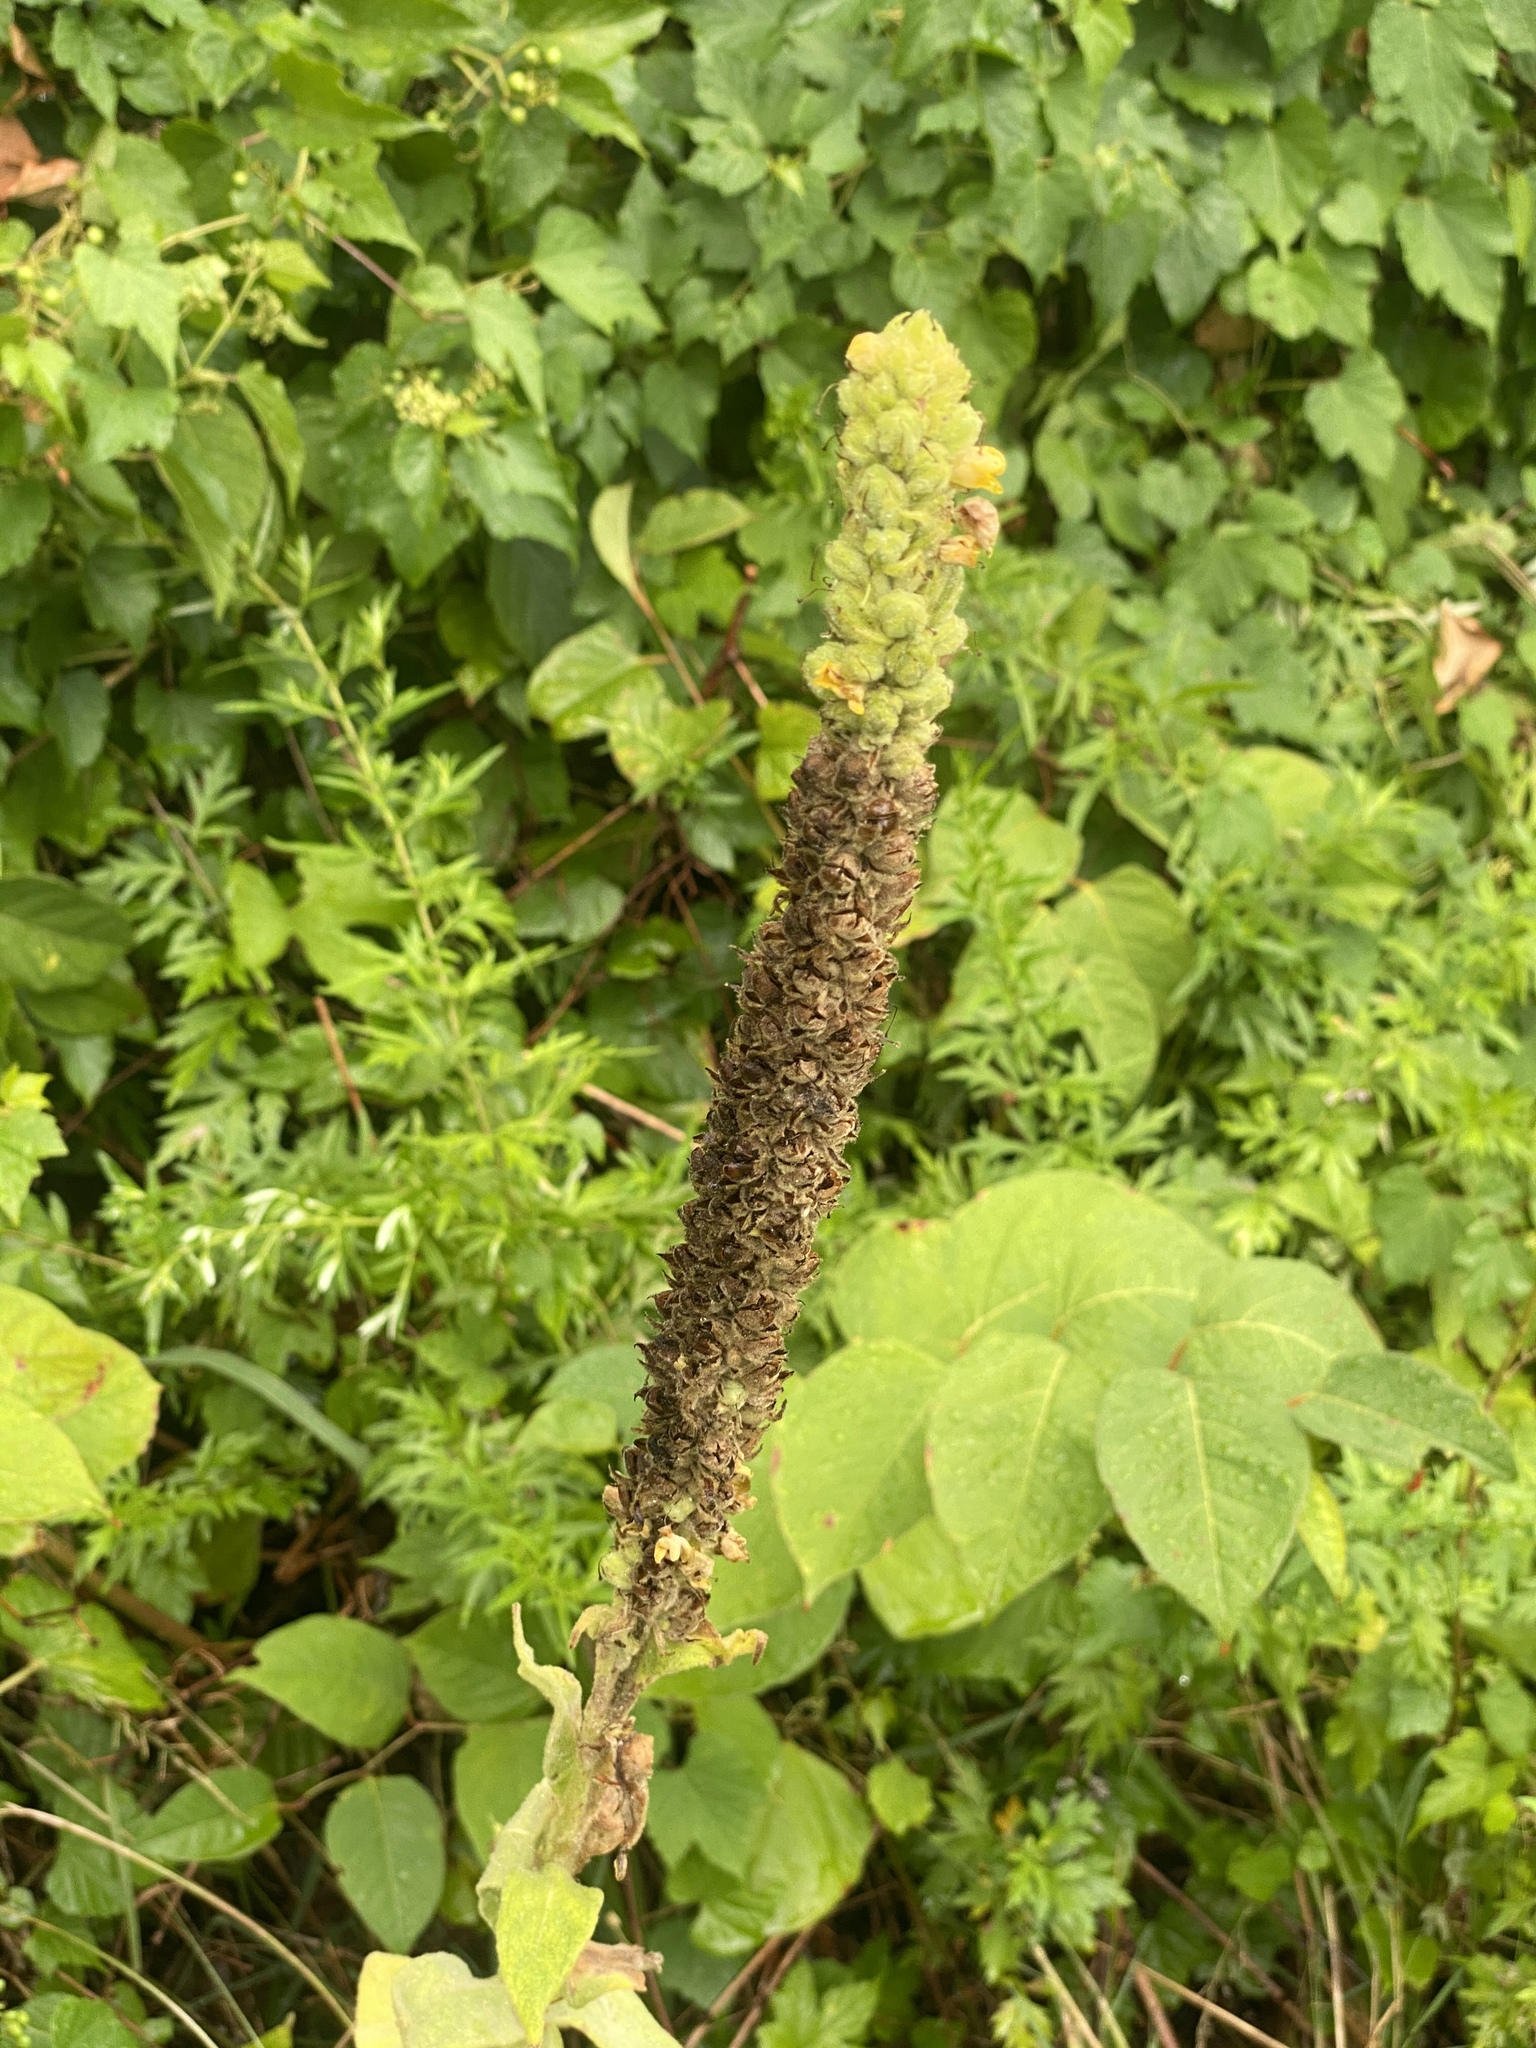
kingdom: Plantae
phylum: Tracheophyta
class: Magnoliopsida
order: Lamiales
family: Scrophulariaceae
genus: Verbascum
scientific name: Verbascum thapsus
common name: Common mullein
